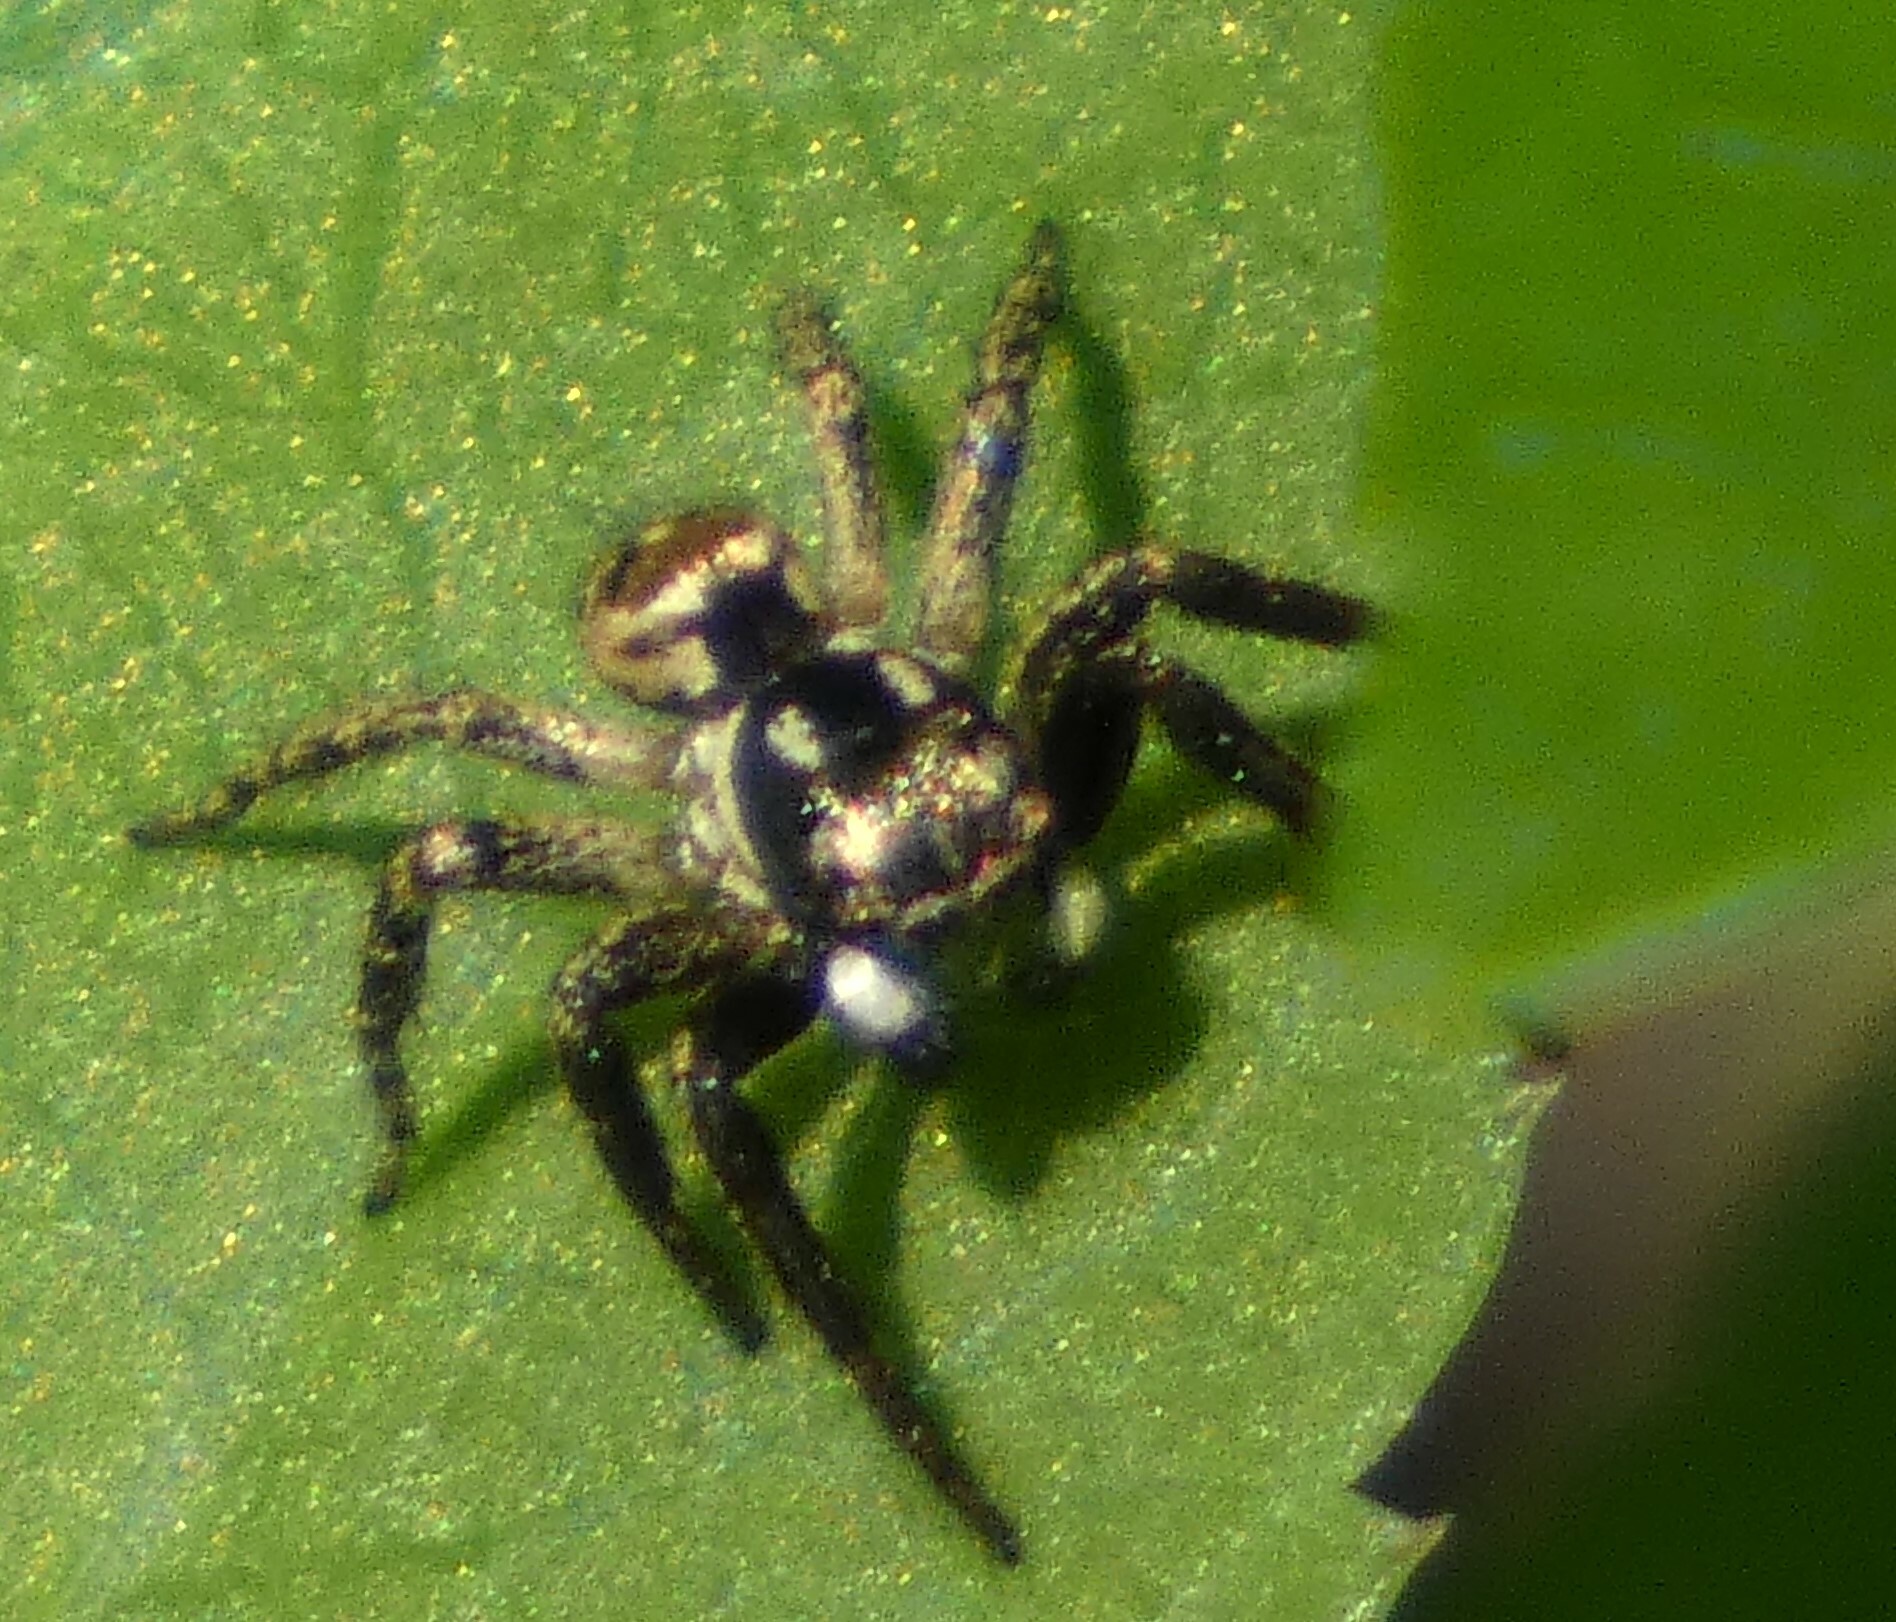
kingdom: Animalia
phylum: Arthropoda
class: Arachnida
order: Araneae
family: Salticidae
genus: Anasaitis
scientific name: Anasaitis canosa
